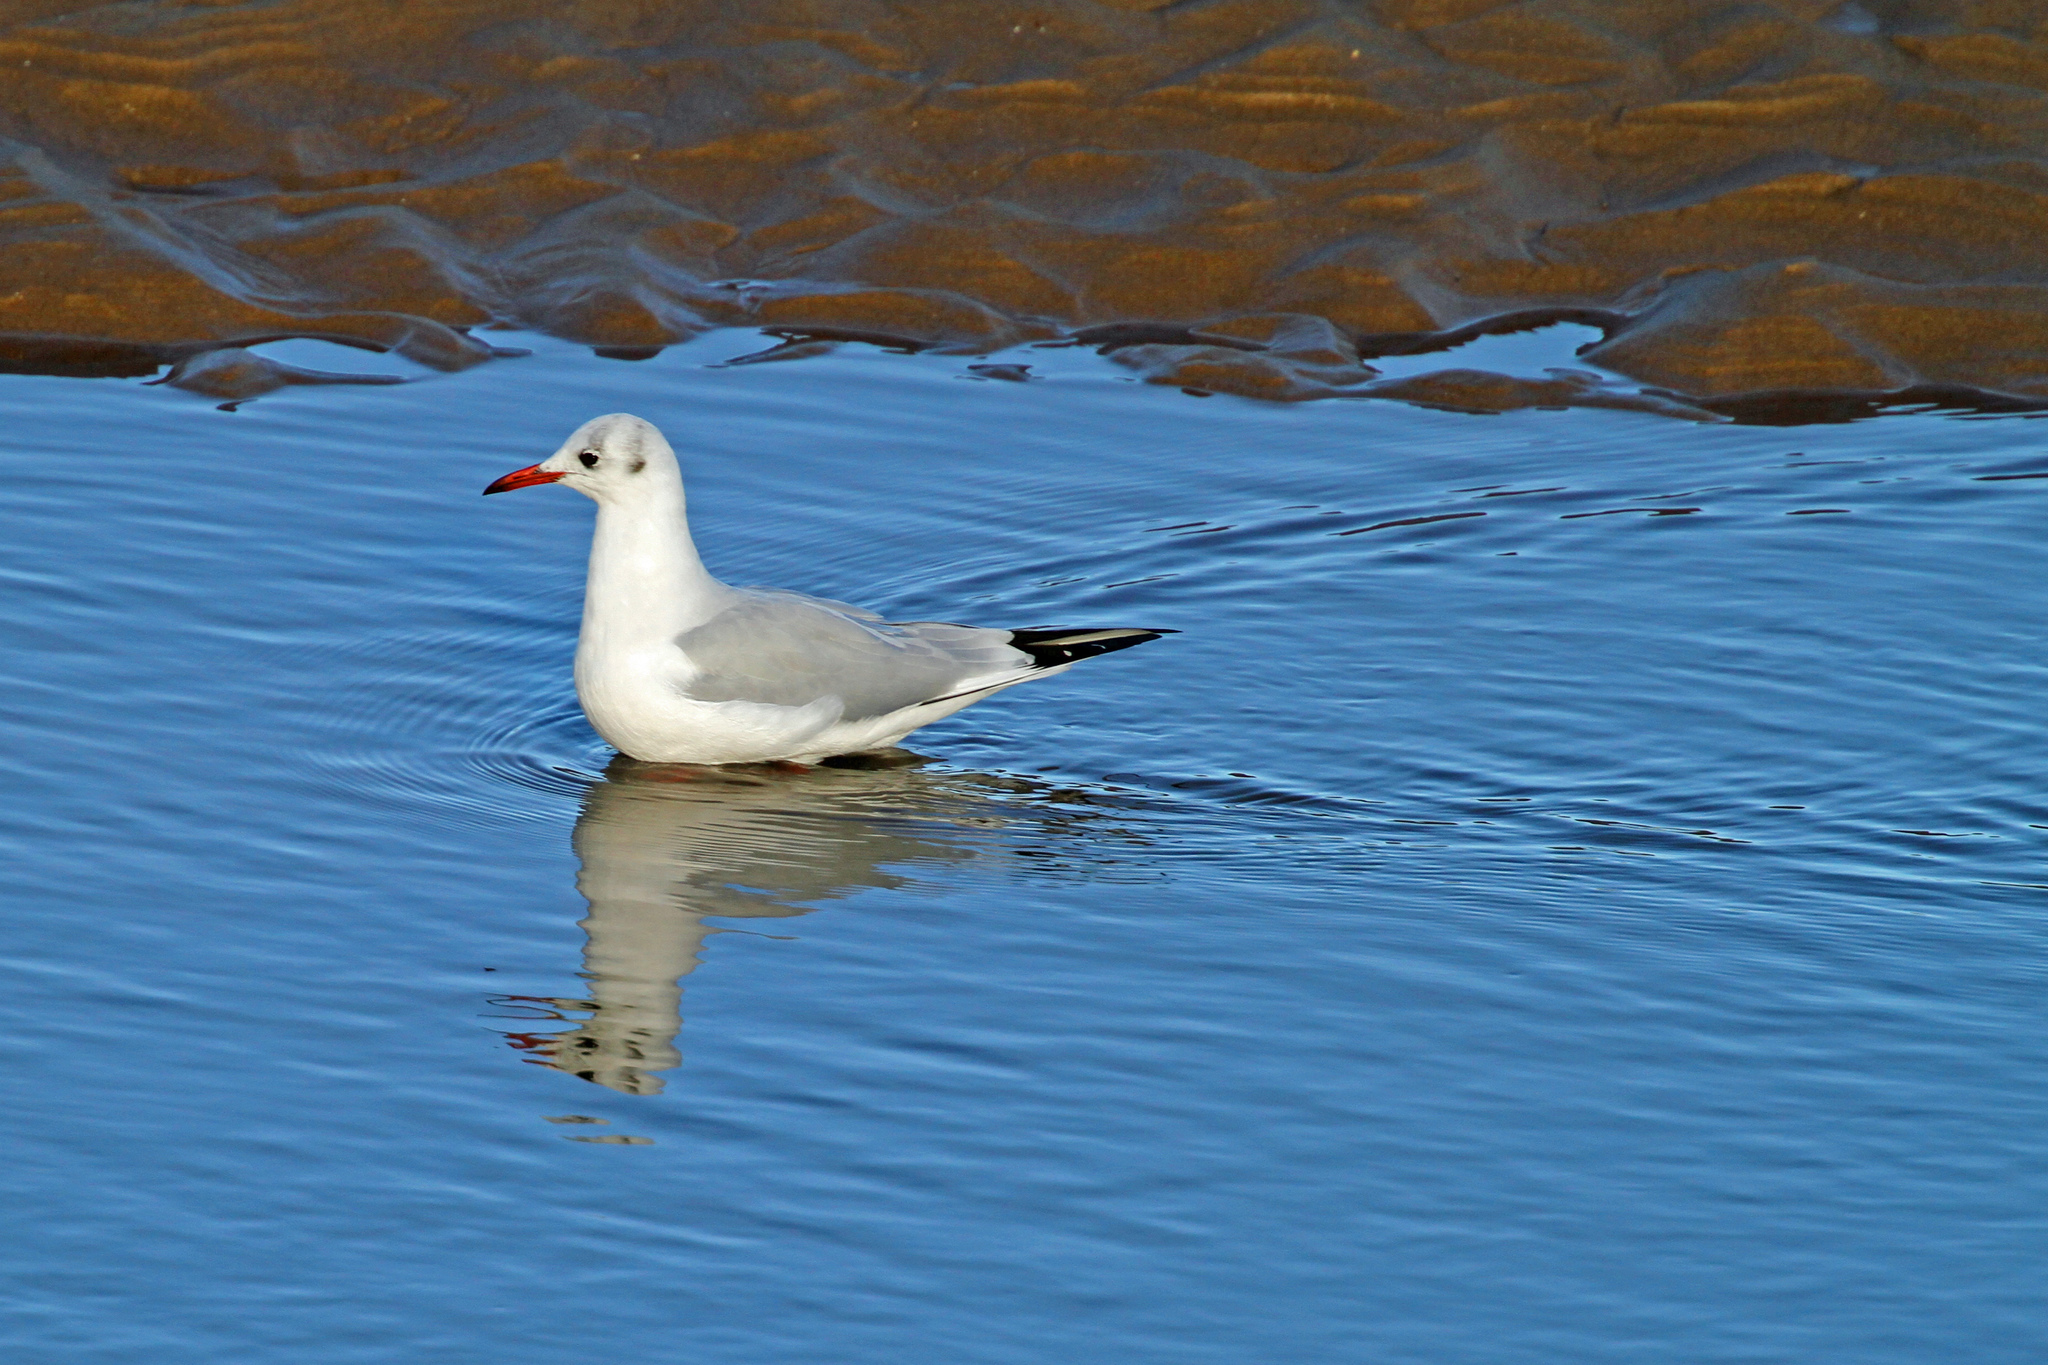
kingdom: Animalia
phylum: Chordata
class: Aves
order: Charadriiformes
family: Laridae
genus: Chroicocephalus
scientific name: Chroicocephalus ridibundus
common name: Black-headed gull
